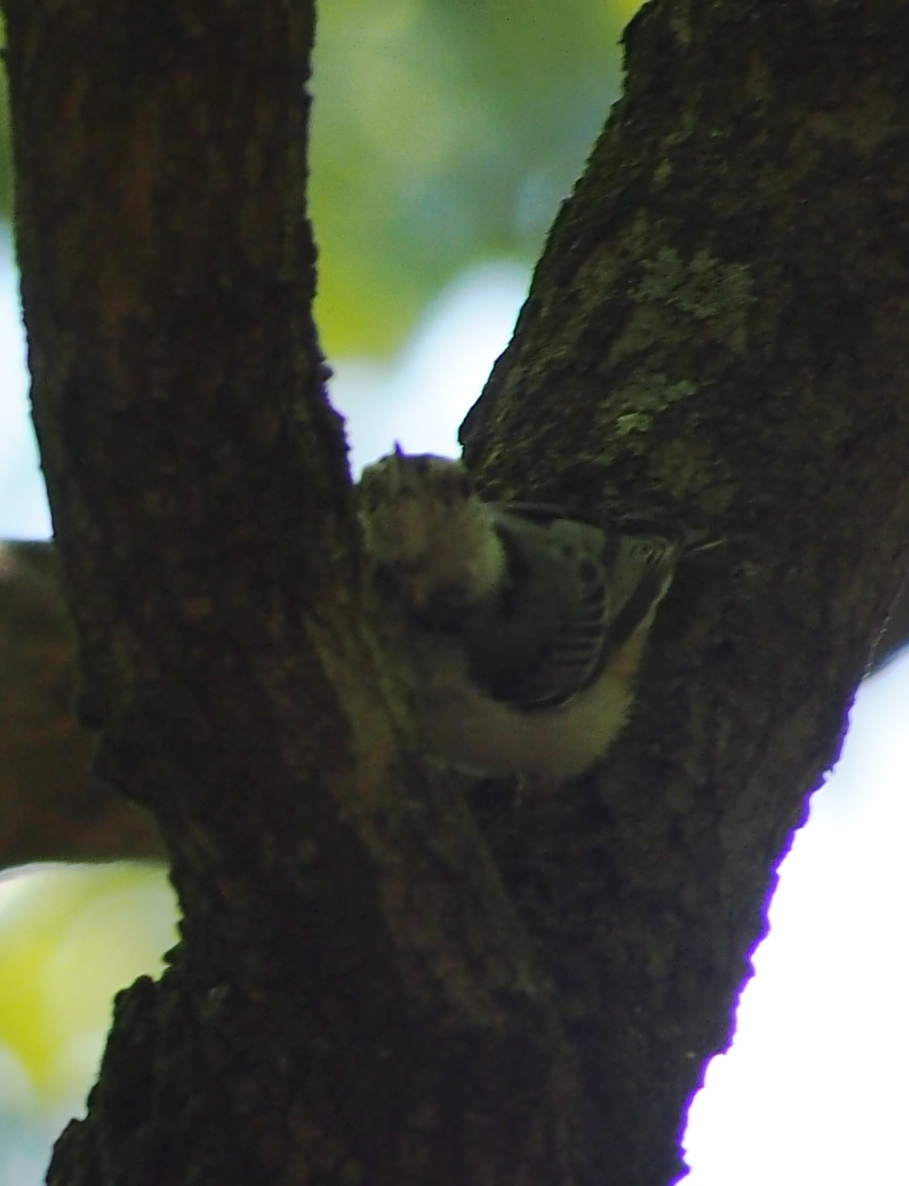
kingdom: Animalia
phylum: Chordata
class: Aves
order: Passeriformes
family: Sittidae
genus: Sitta
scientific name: Sitta carolinensis
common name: White-breasted nuthatch
